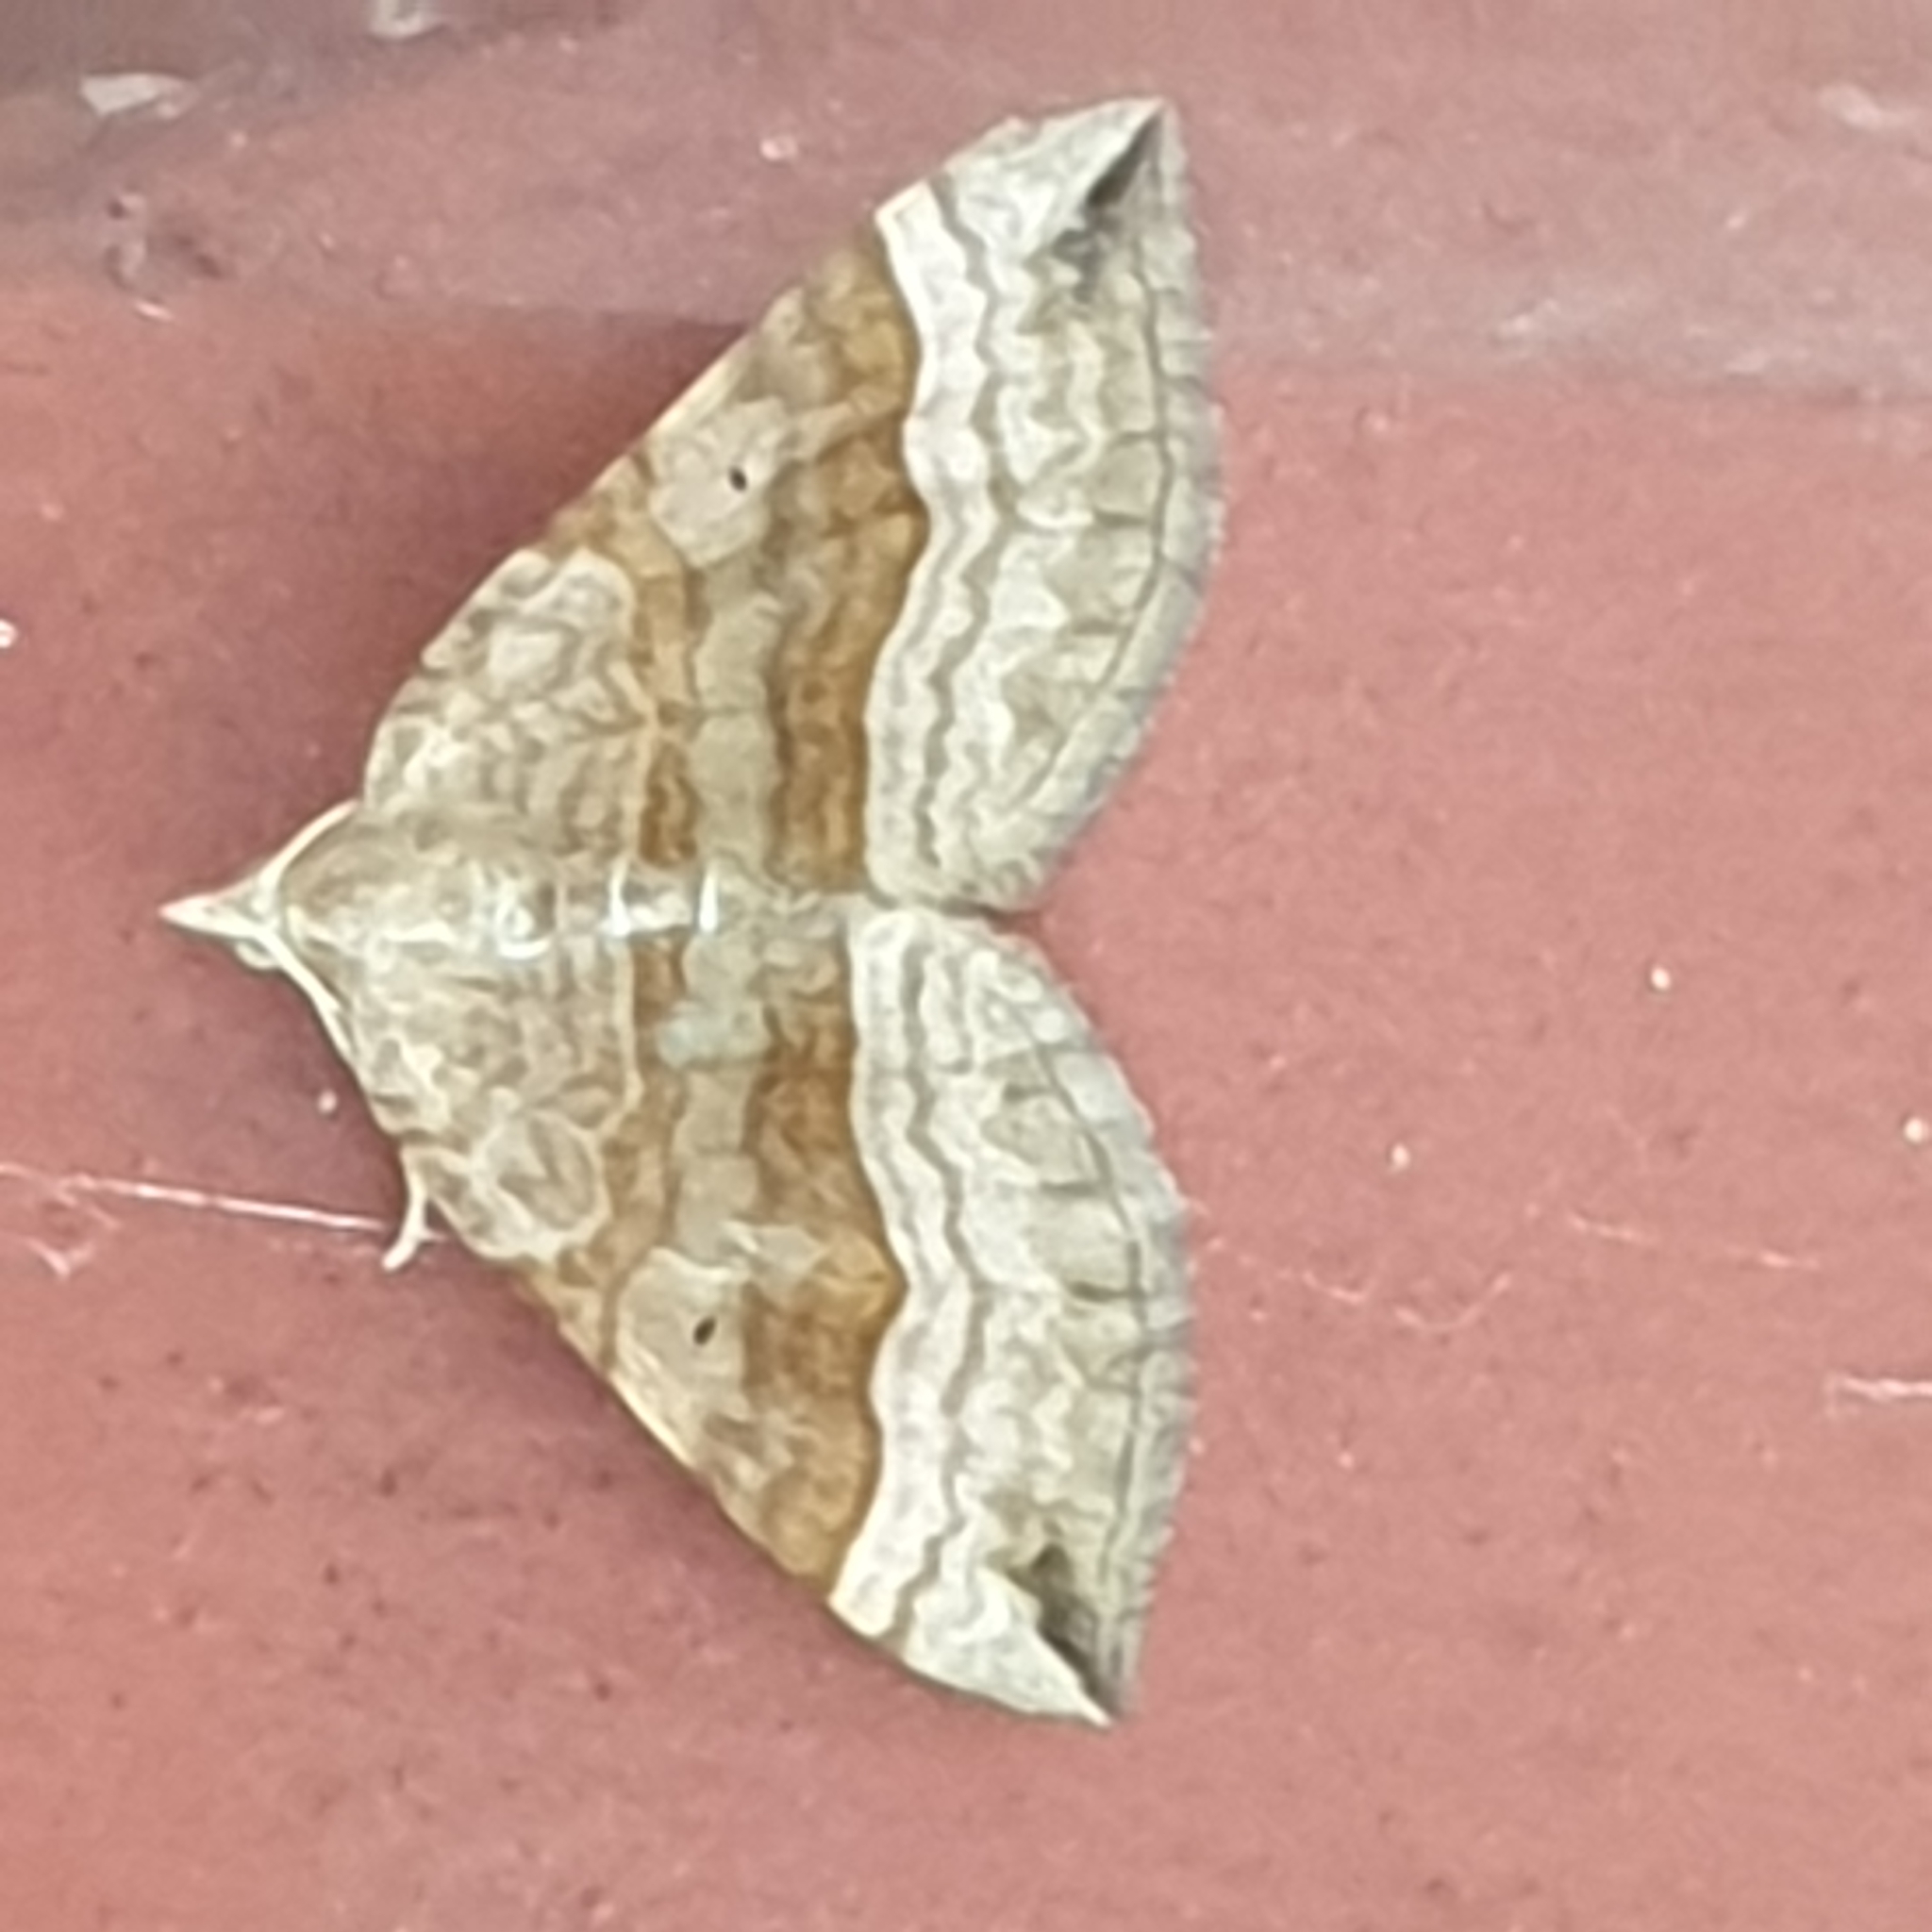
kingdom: Animalia
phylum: Arthropoda
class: Insecta
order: Lepidoptera
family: Geometridae
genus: Scotopteryx
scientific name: Scotopteryx chenopodiata
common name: Shaded broad-bar
